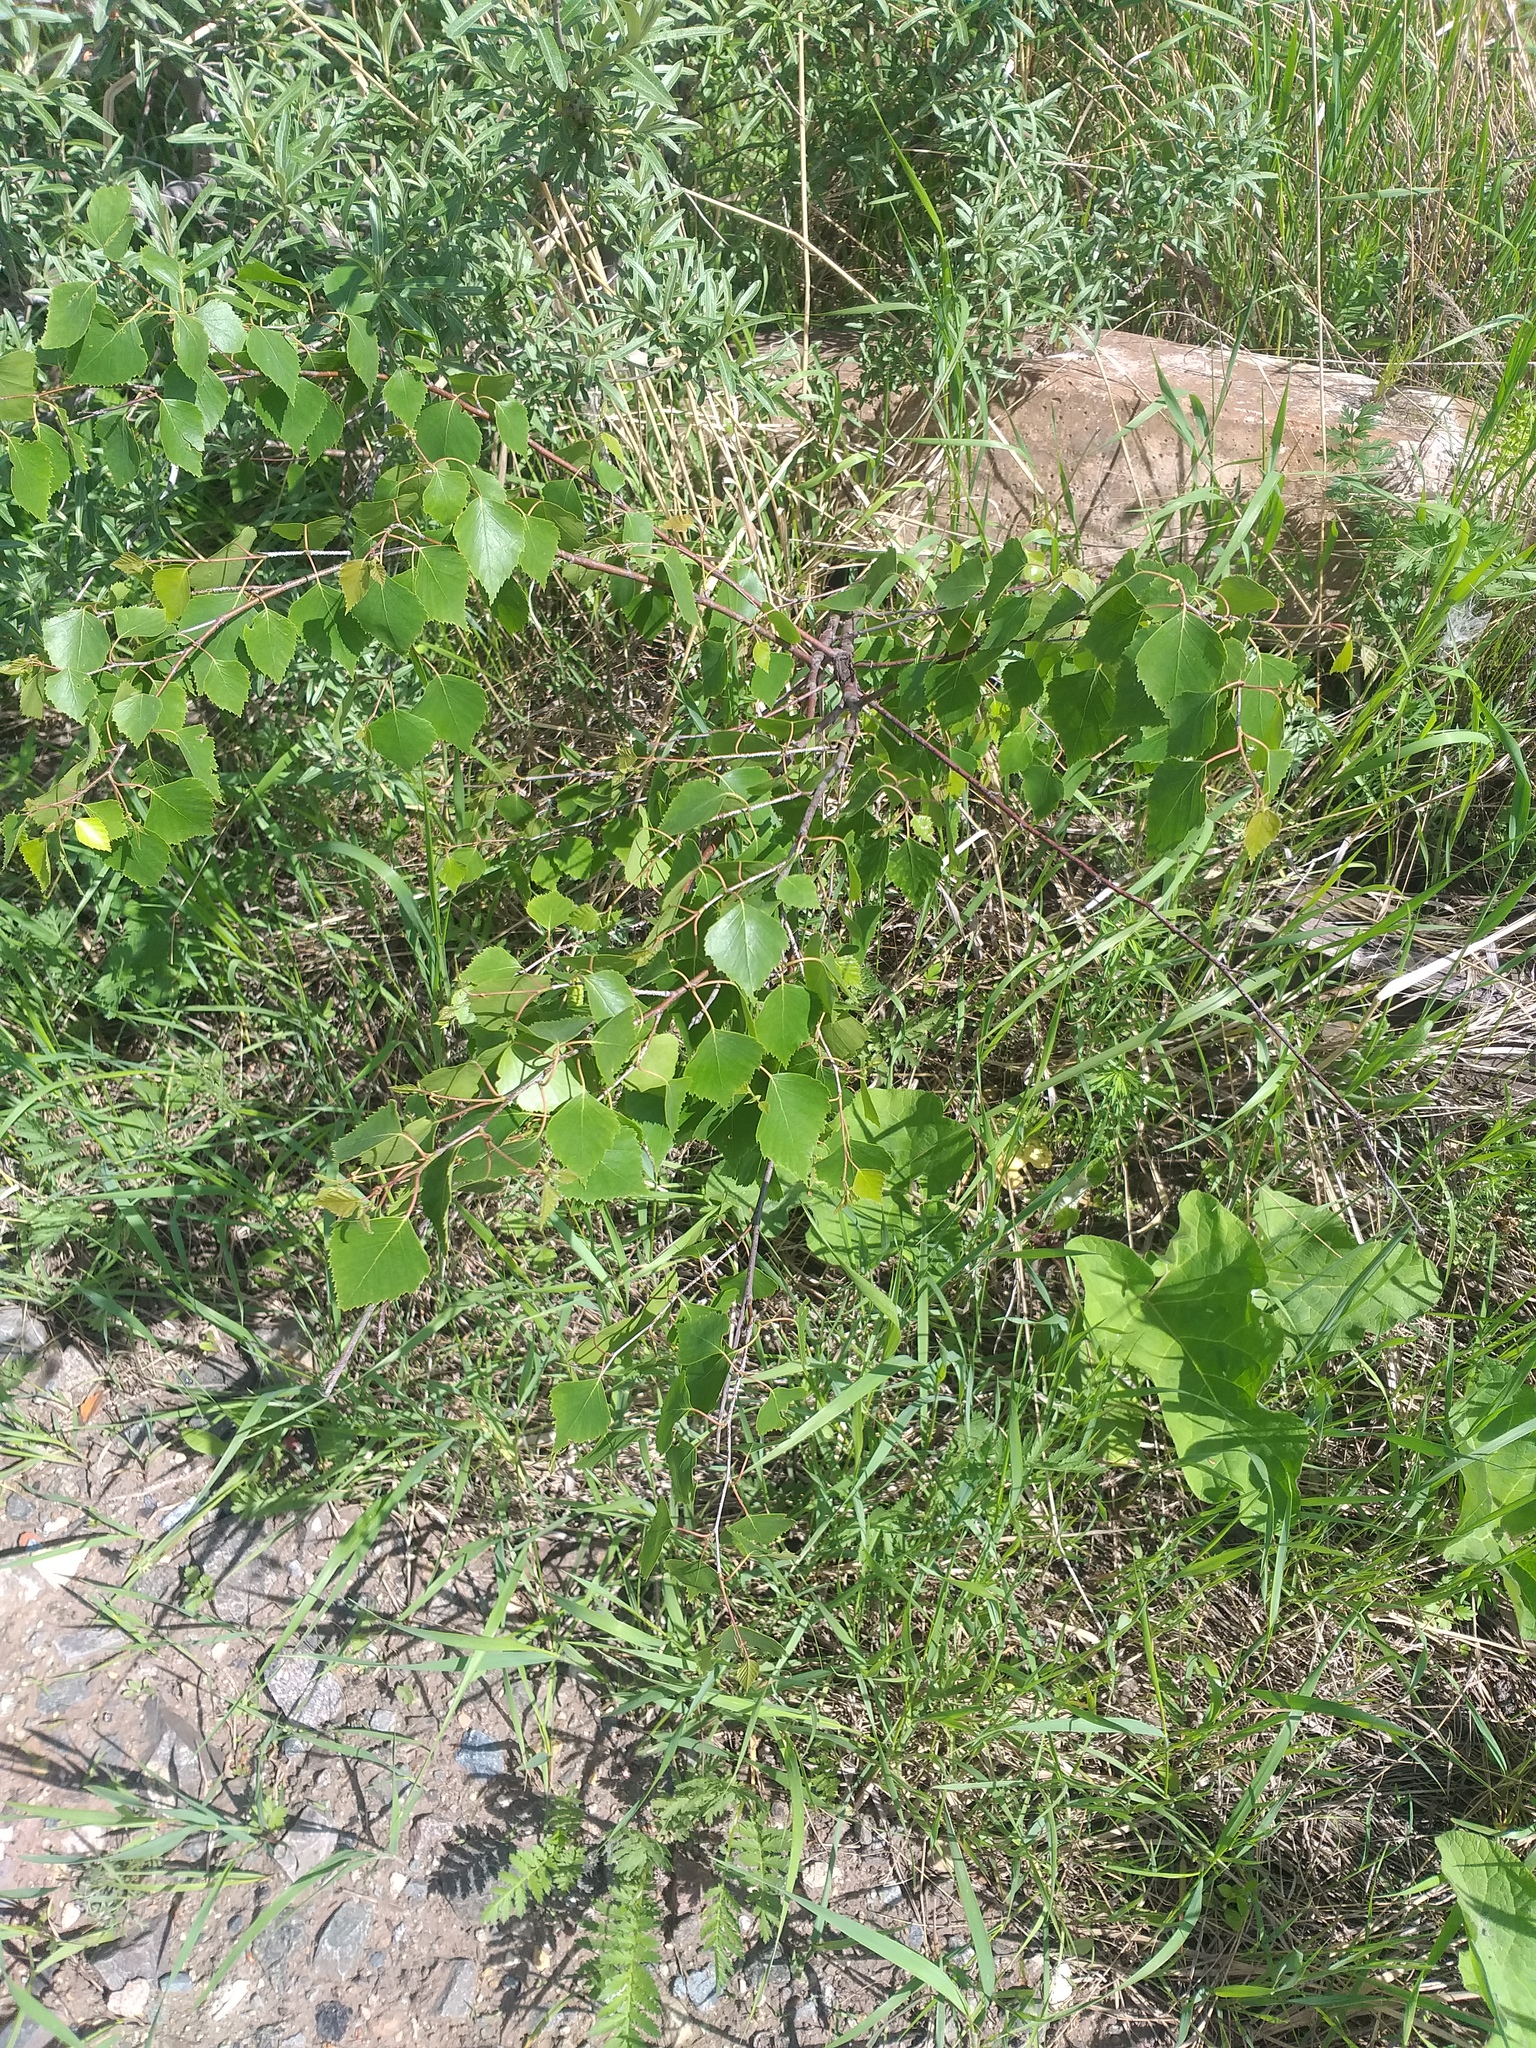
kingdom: Plantae
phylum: Tracheophyta
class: Magnoliopsida
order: Fagales
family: Betulaceae
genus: Betula
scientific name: Betula pendula
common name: Silver birch
